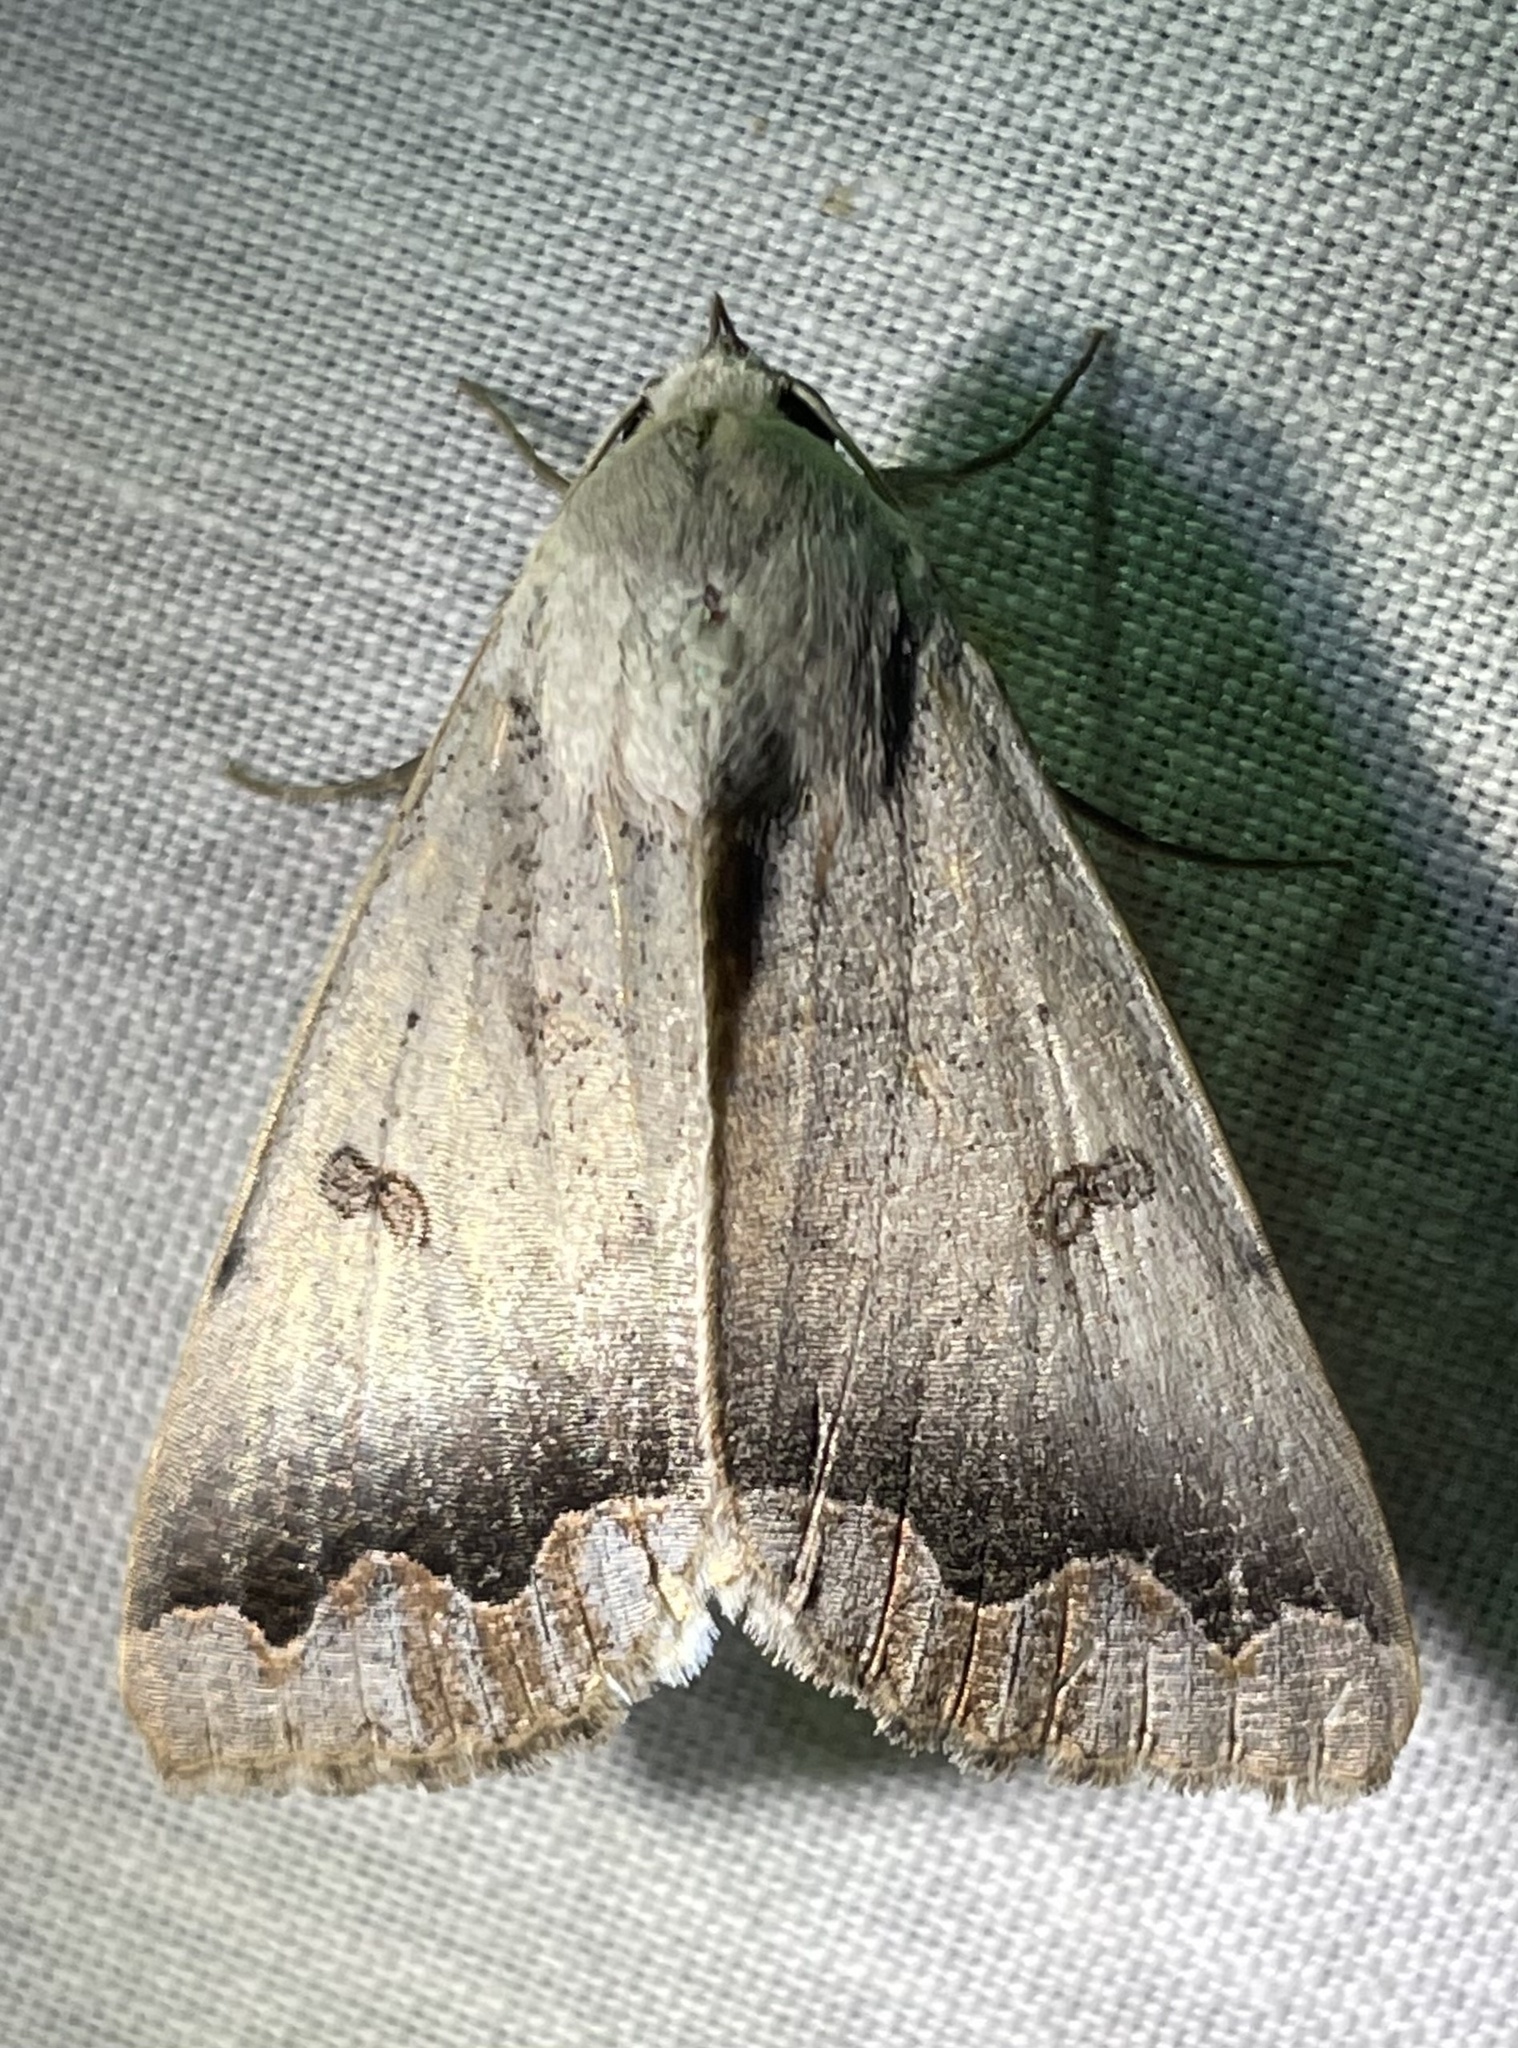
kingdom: Animalia
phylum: Arthropoda
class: Insecta
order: Lepidoptera
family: Erebidae
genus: Ophiusa
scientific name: Ophiusa dianaris
